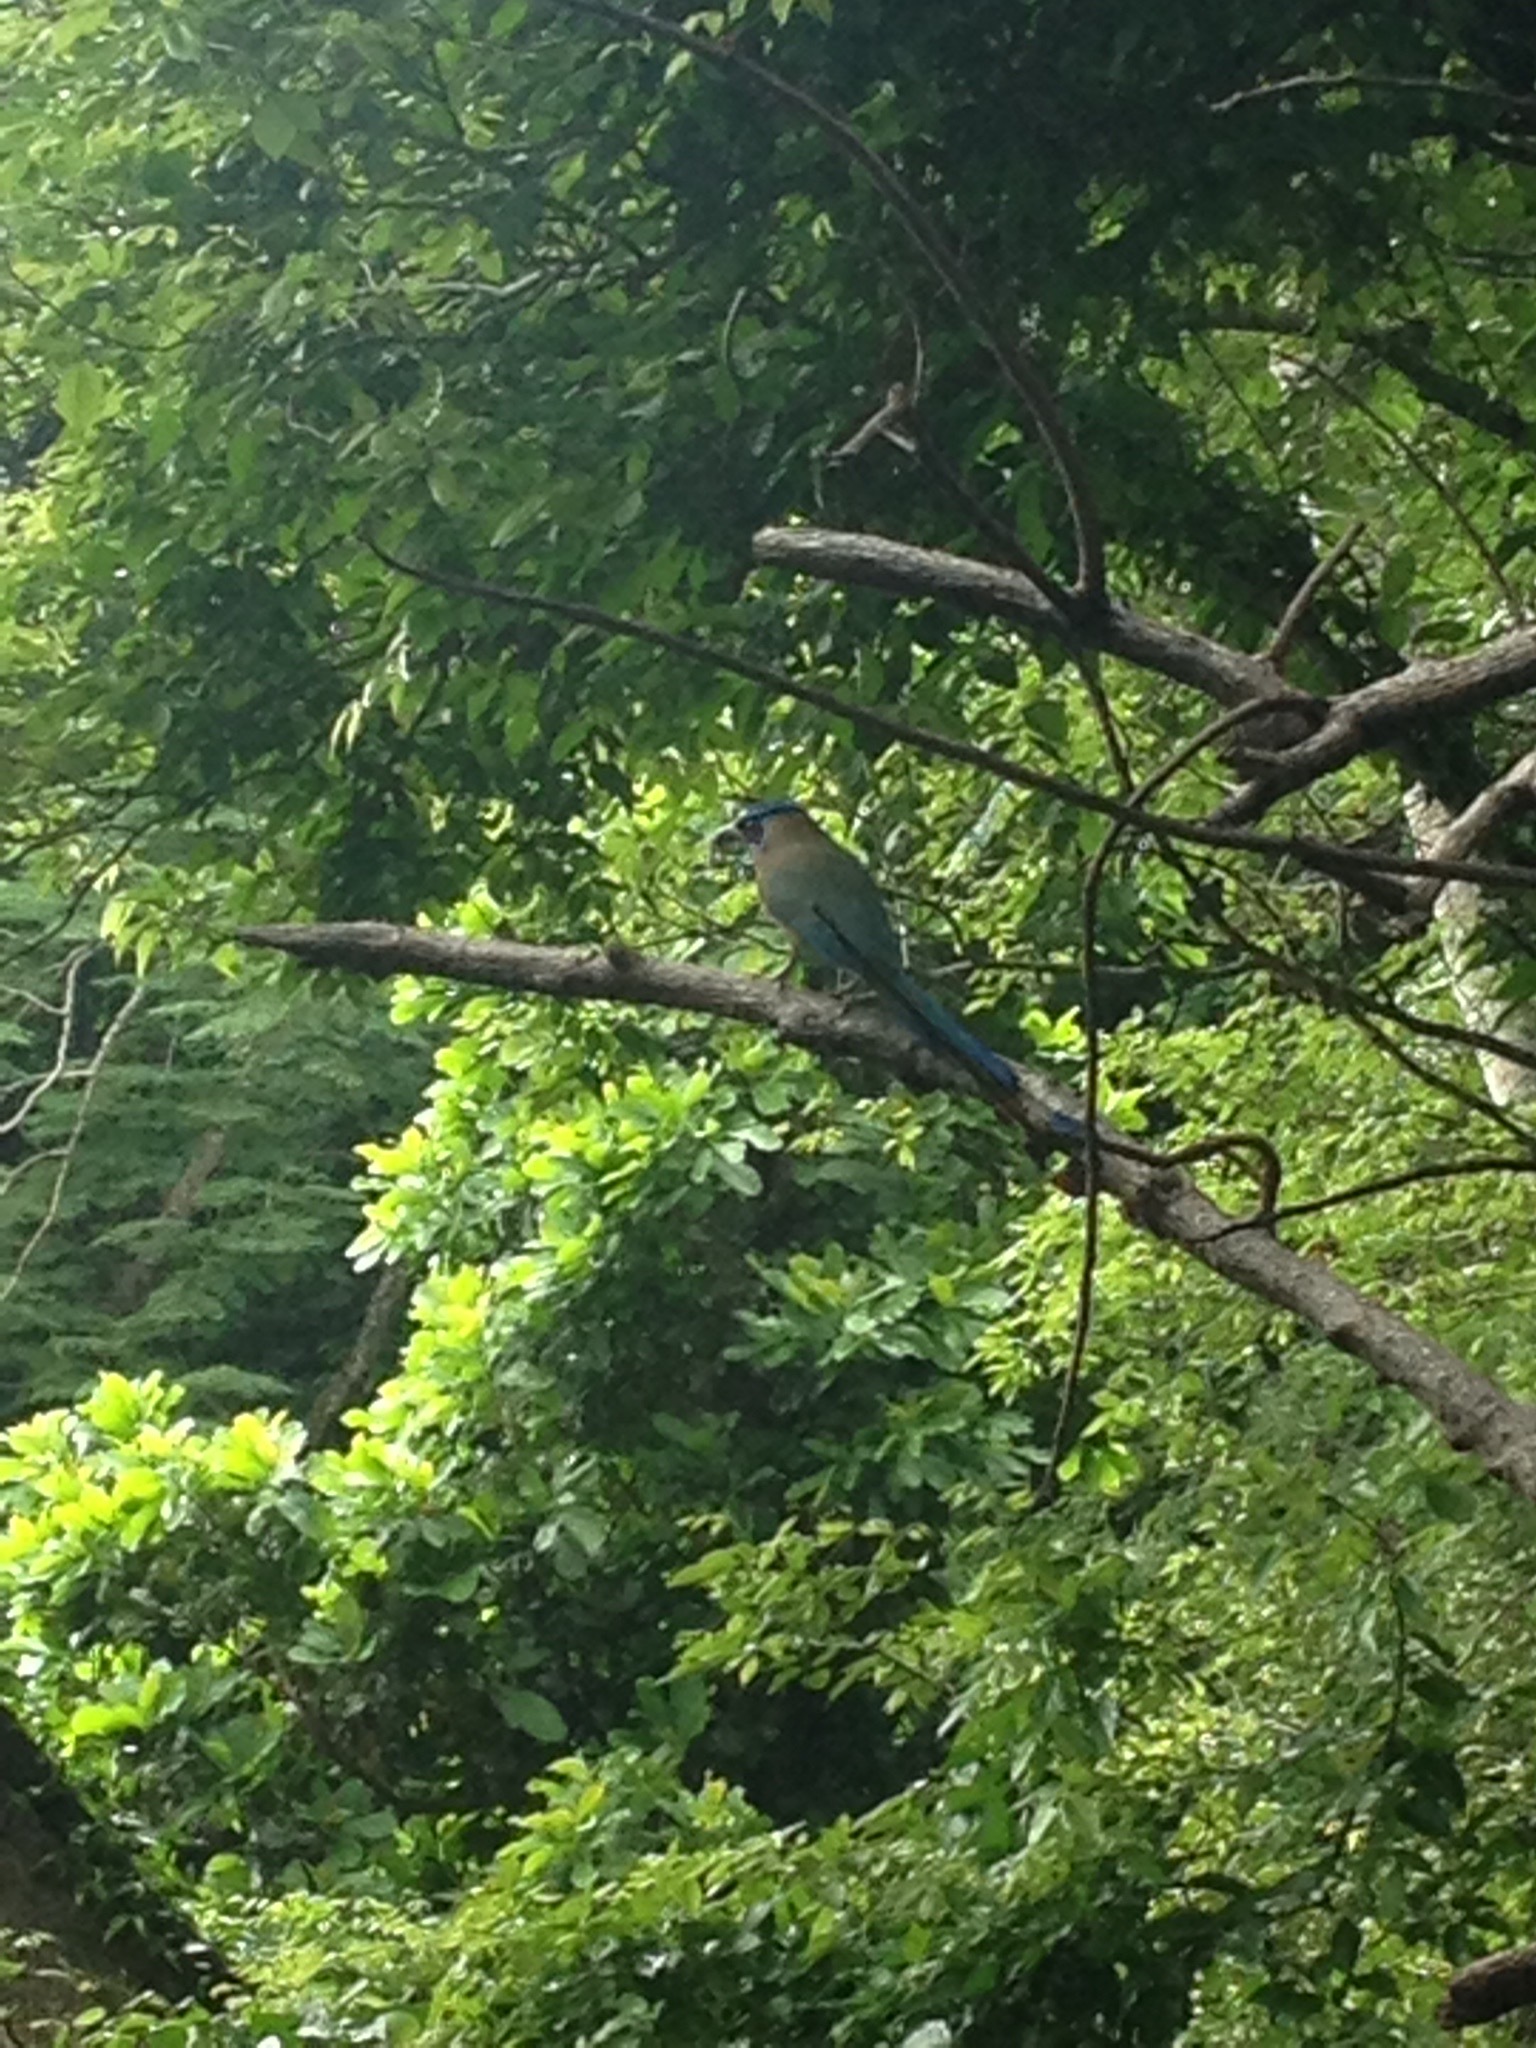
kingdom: Animalia
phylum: Chordata
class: Aves
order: Coraciiformes
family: Momotidae
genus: Momotus
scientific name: Momotus lessonii
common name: Lesson's motmot
